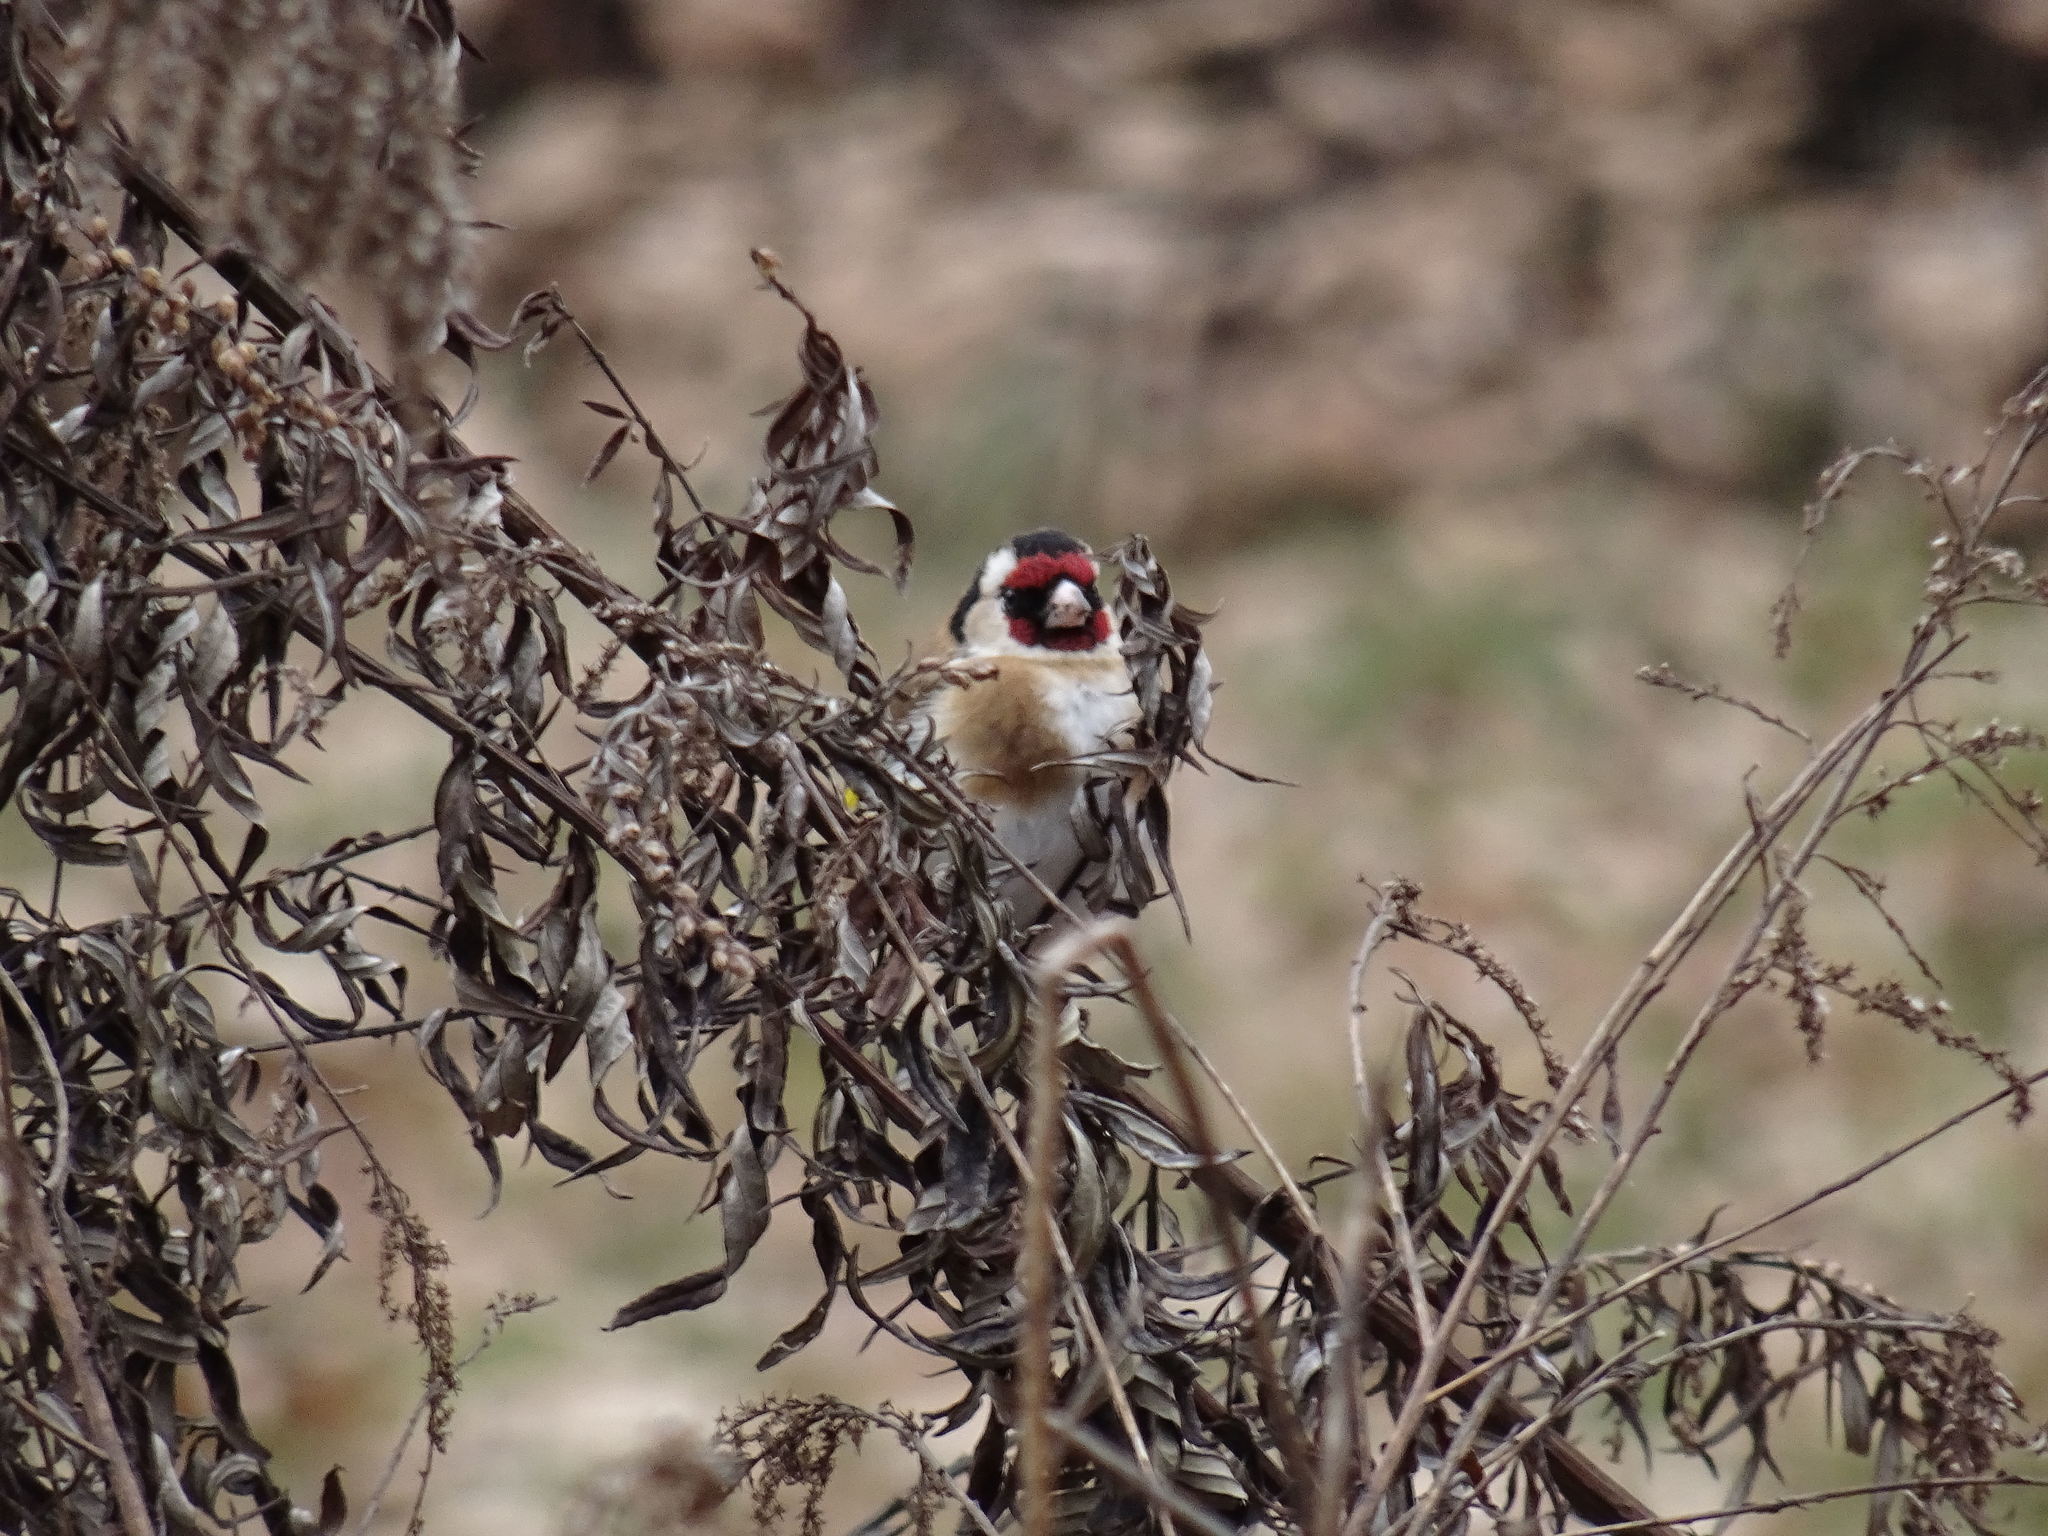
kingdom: Animalia
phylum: Chordata
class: Aves
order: Passeriformes
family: Fringillidae
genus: Carduelis
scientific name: Carduelis carduelis
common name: European goldfinch
